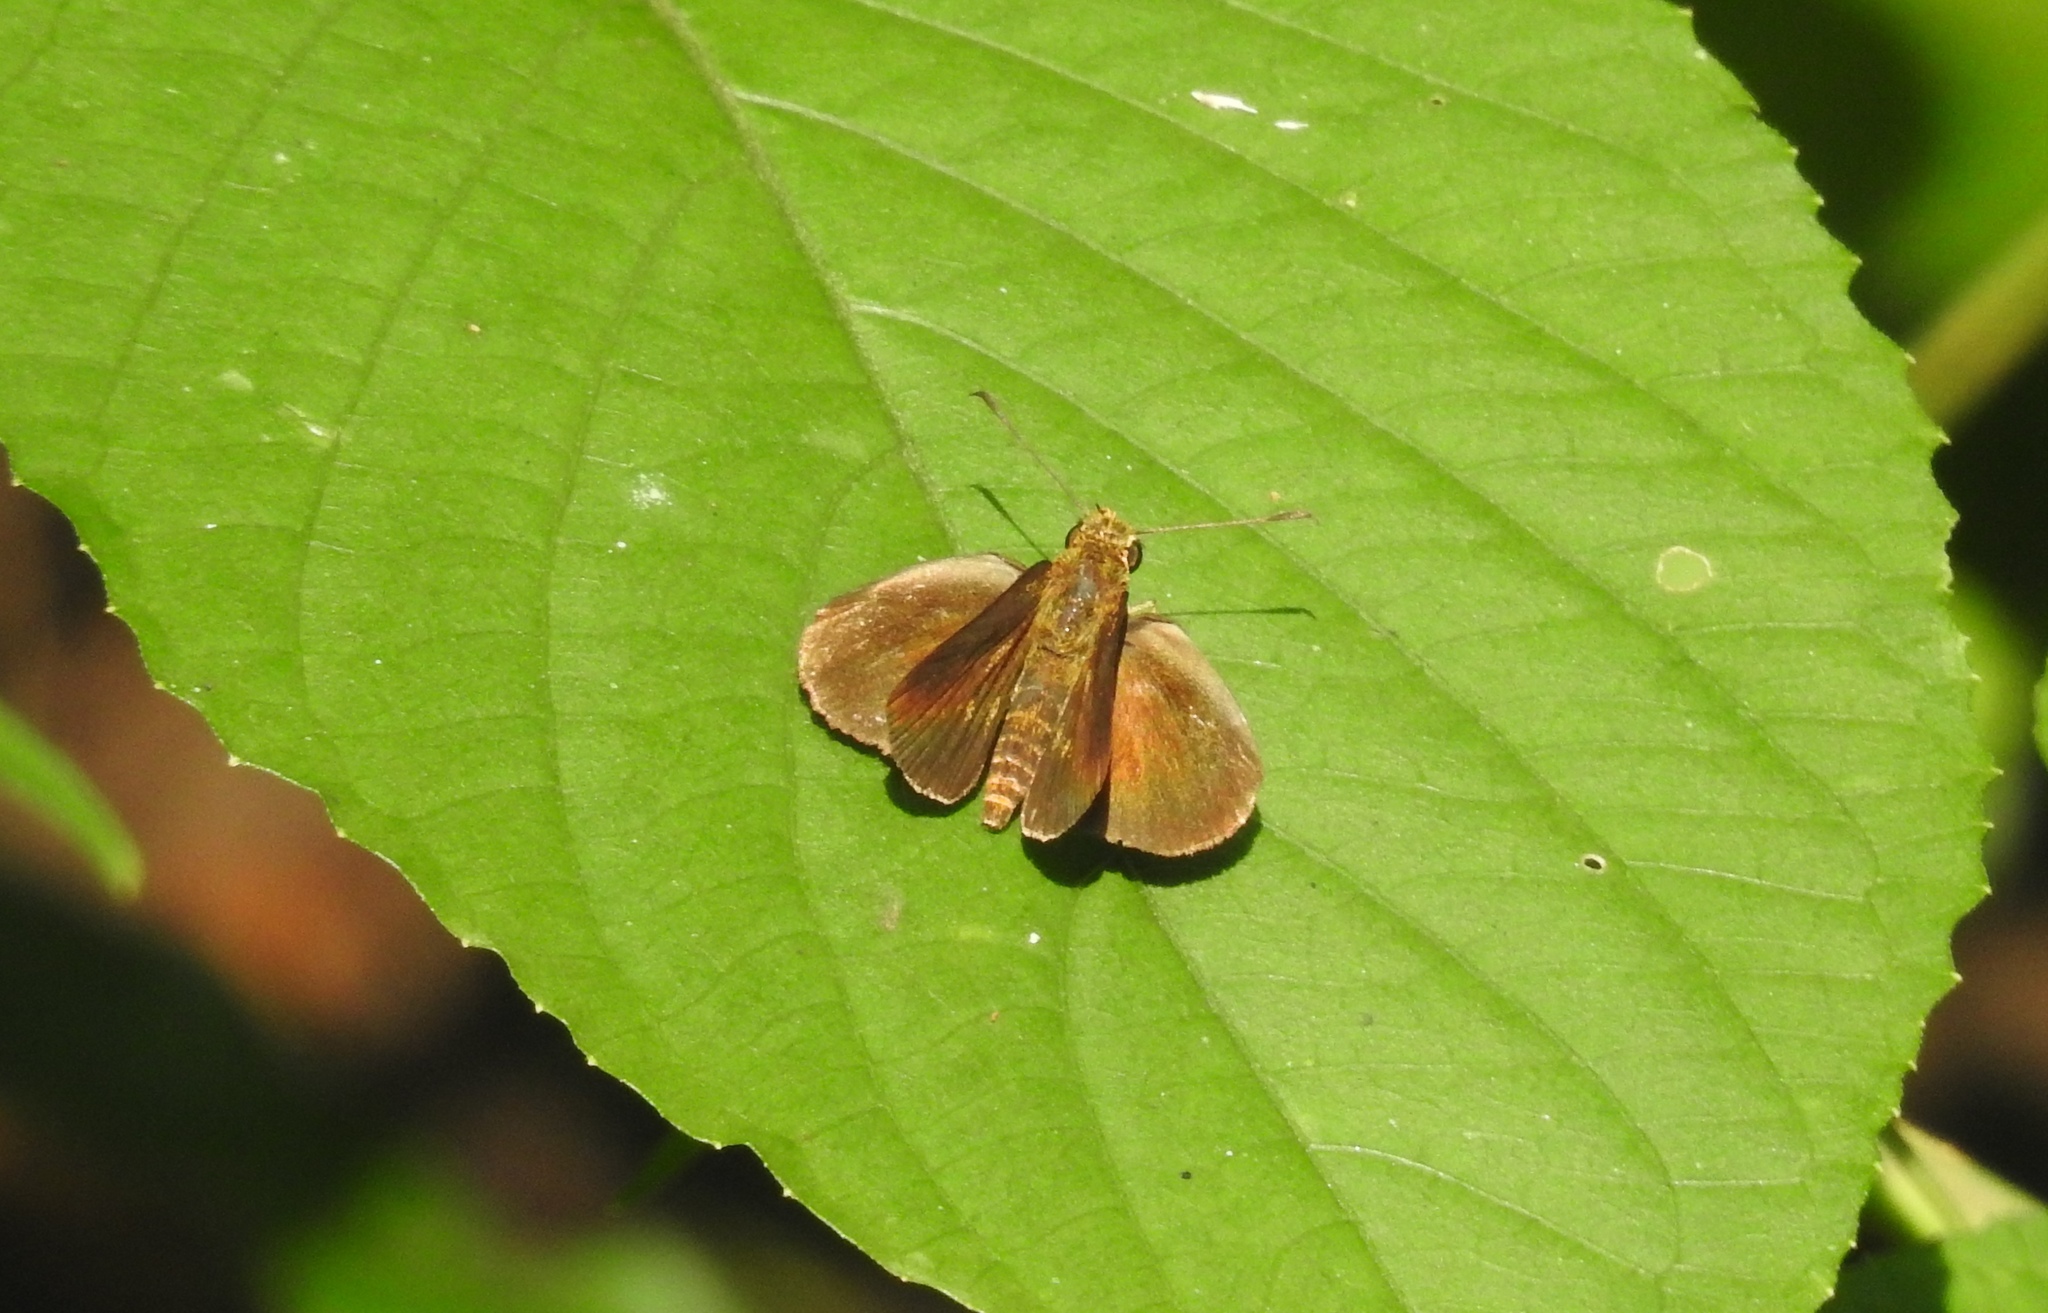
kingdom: Animalia
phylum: Arthropoda
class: Insecta
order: Lepidoptera
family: Hesperiidae
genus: Iambrix
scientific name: Iambrix salsala
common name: Chestnut bob
